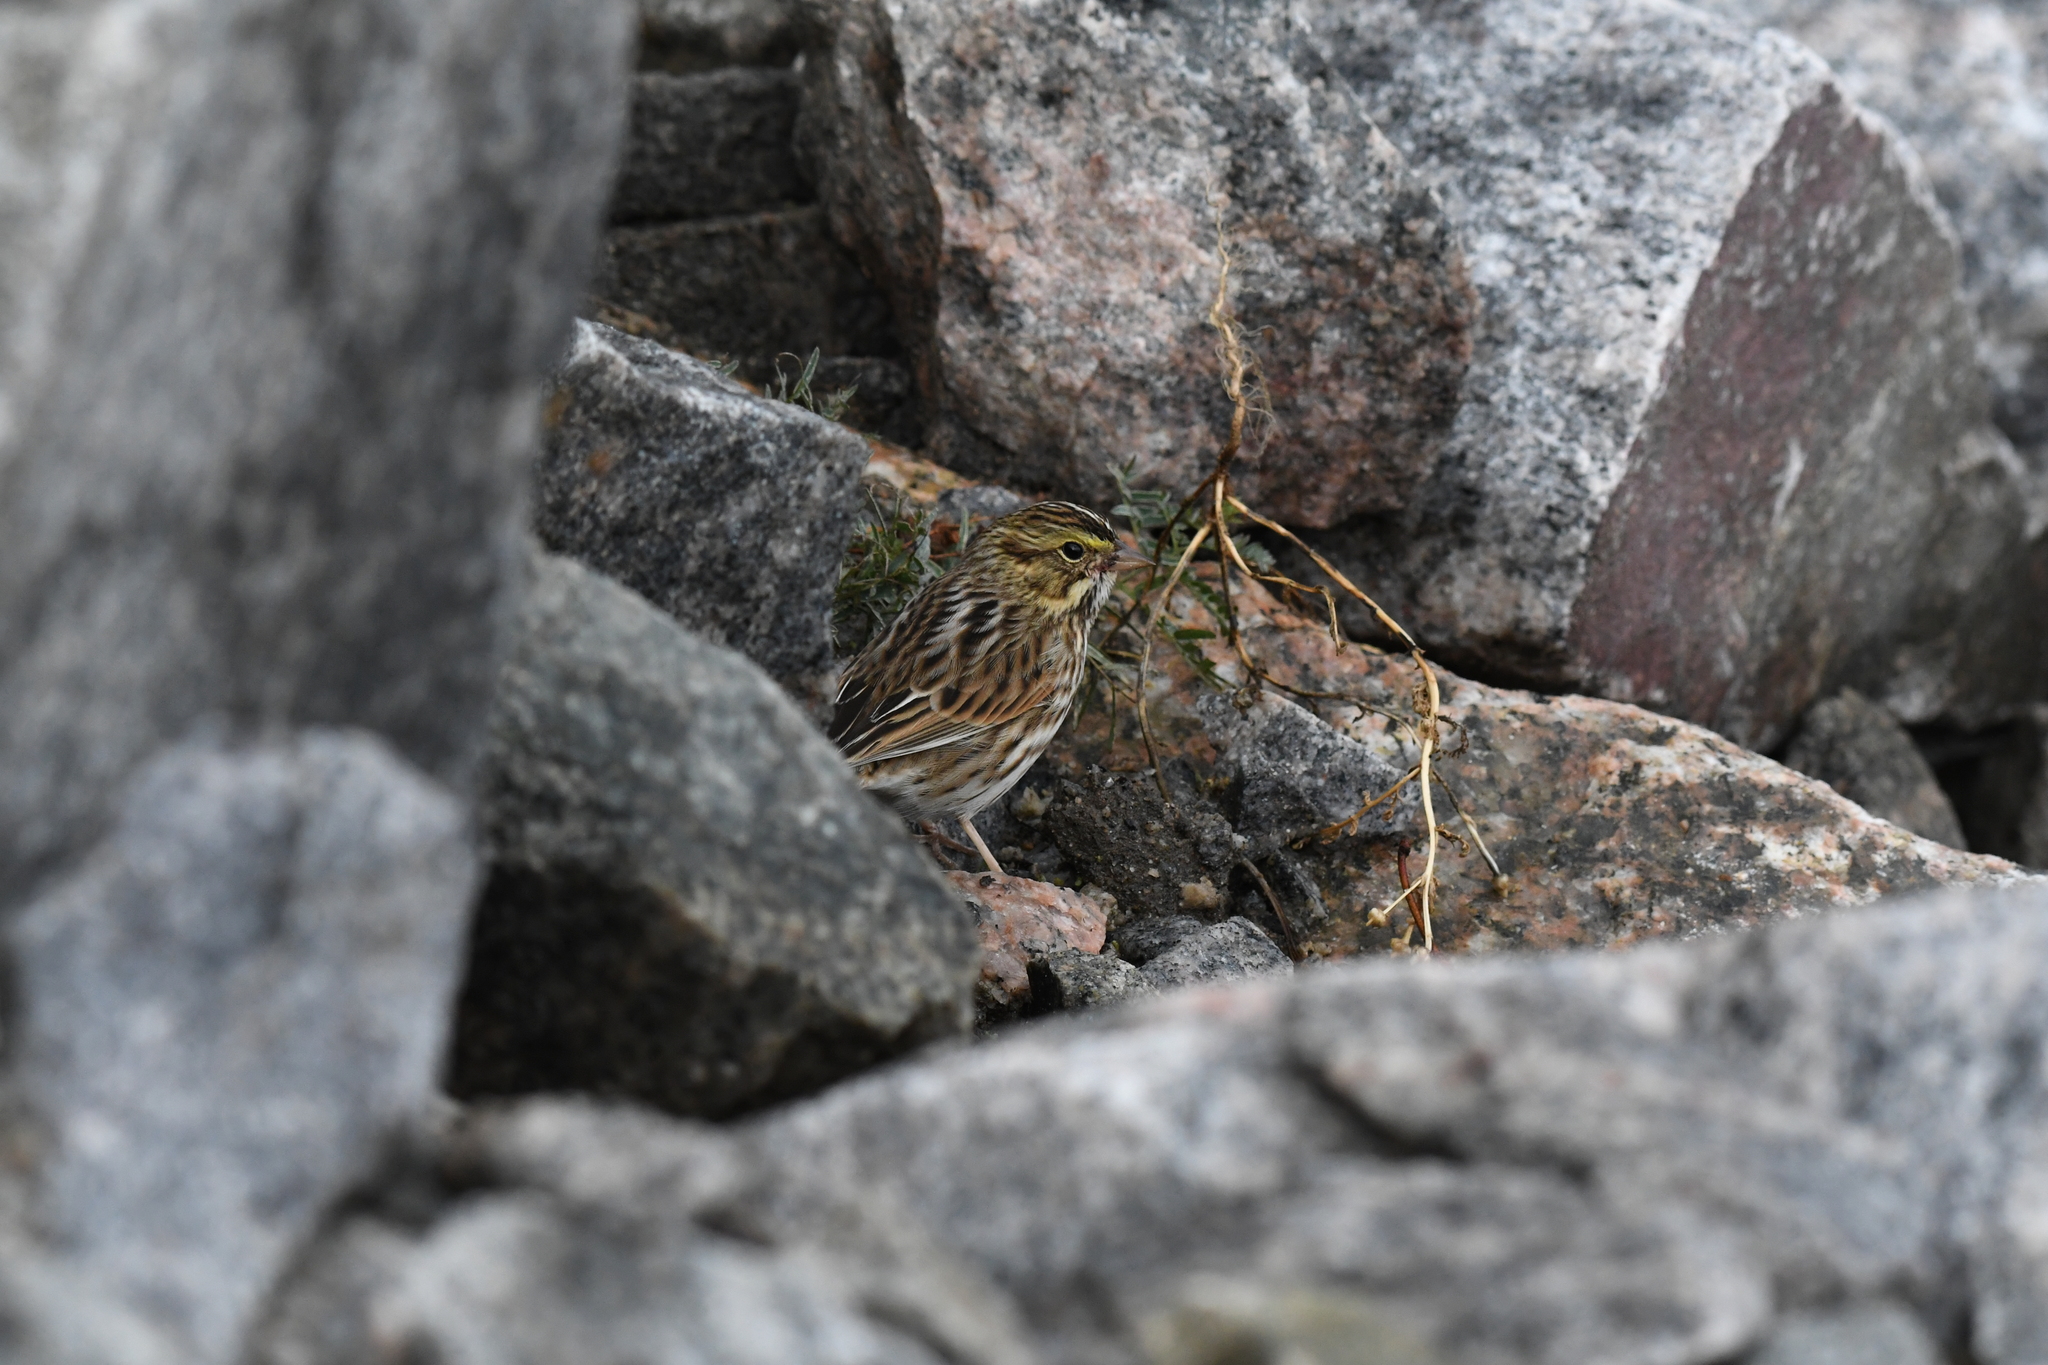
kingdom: Animalia
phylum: Chordata
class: Aves
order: Passeriformes
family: Passerellidae
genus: Passerculus
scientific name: Passerculus sandwichensis
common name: Savannah sparrow
